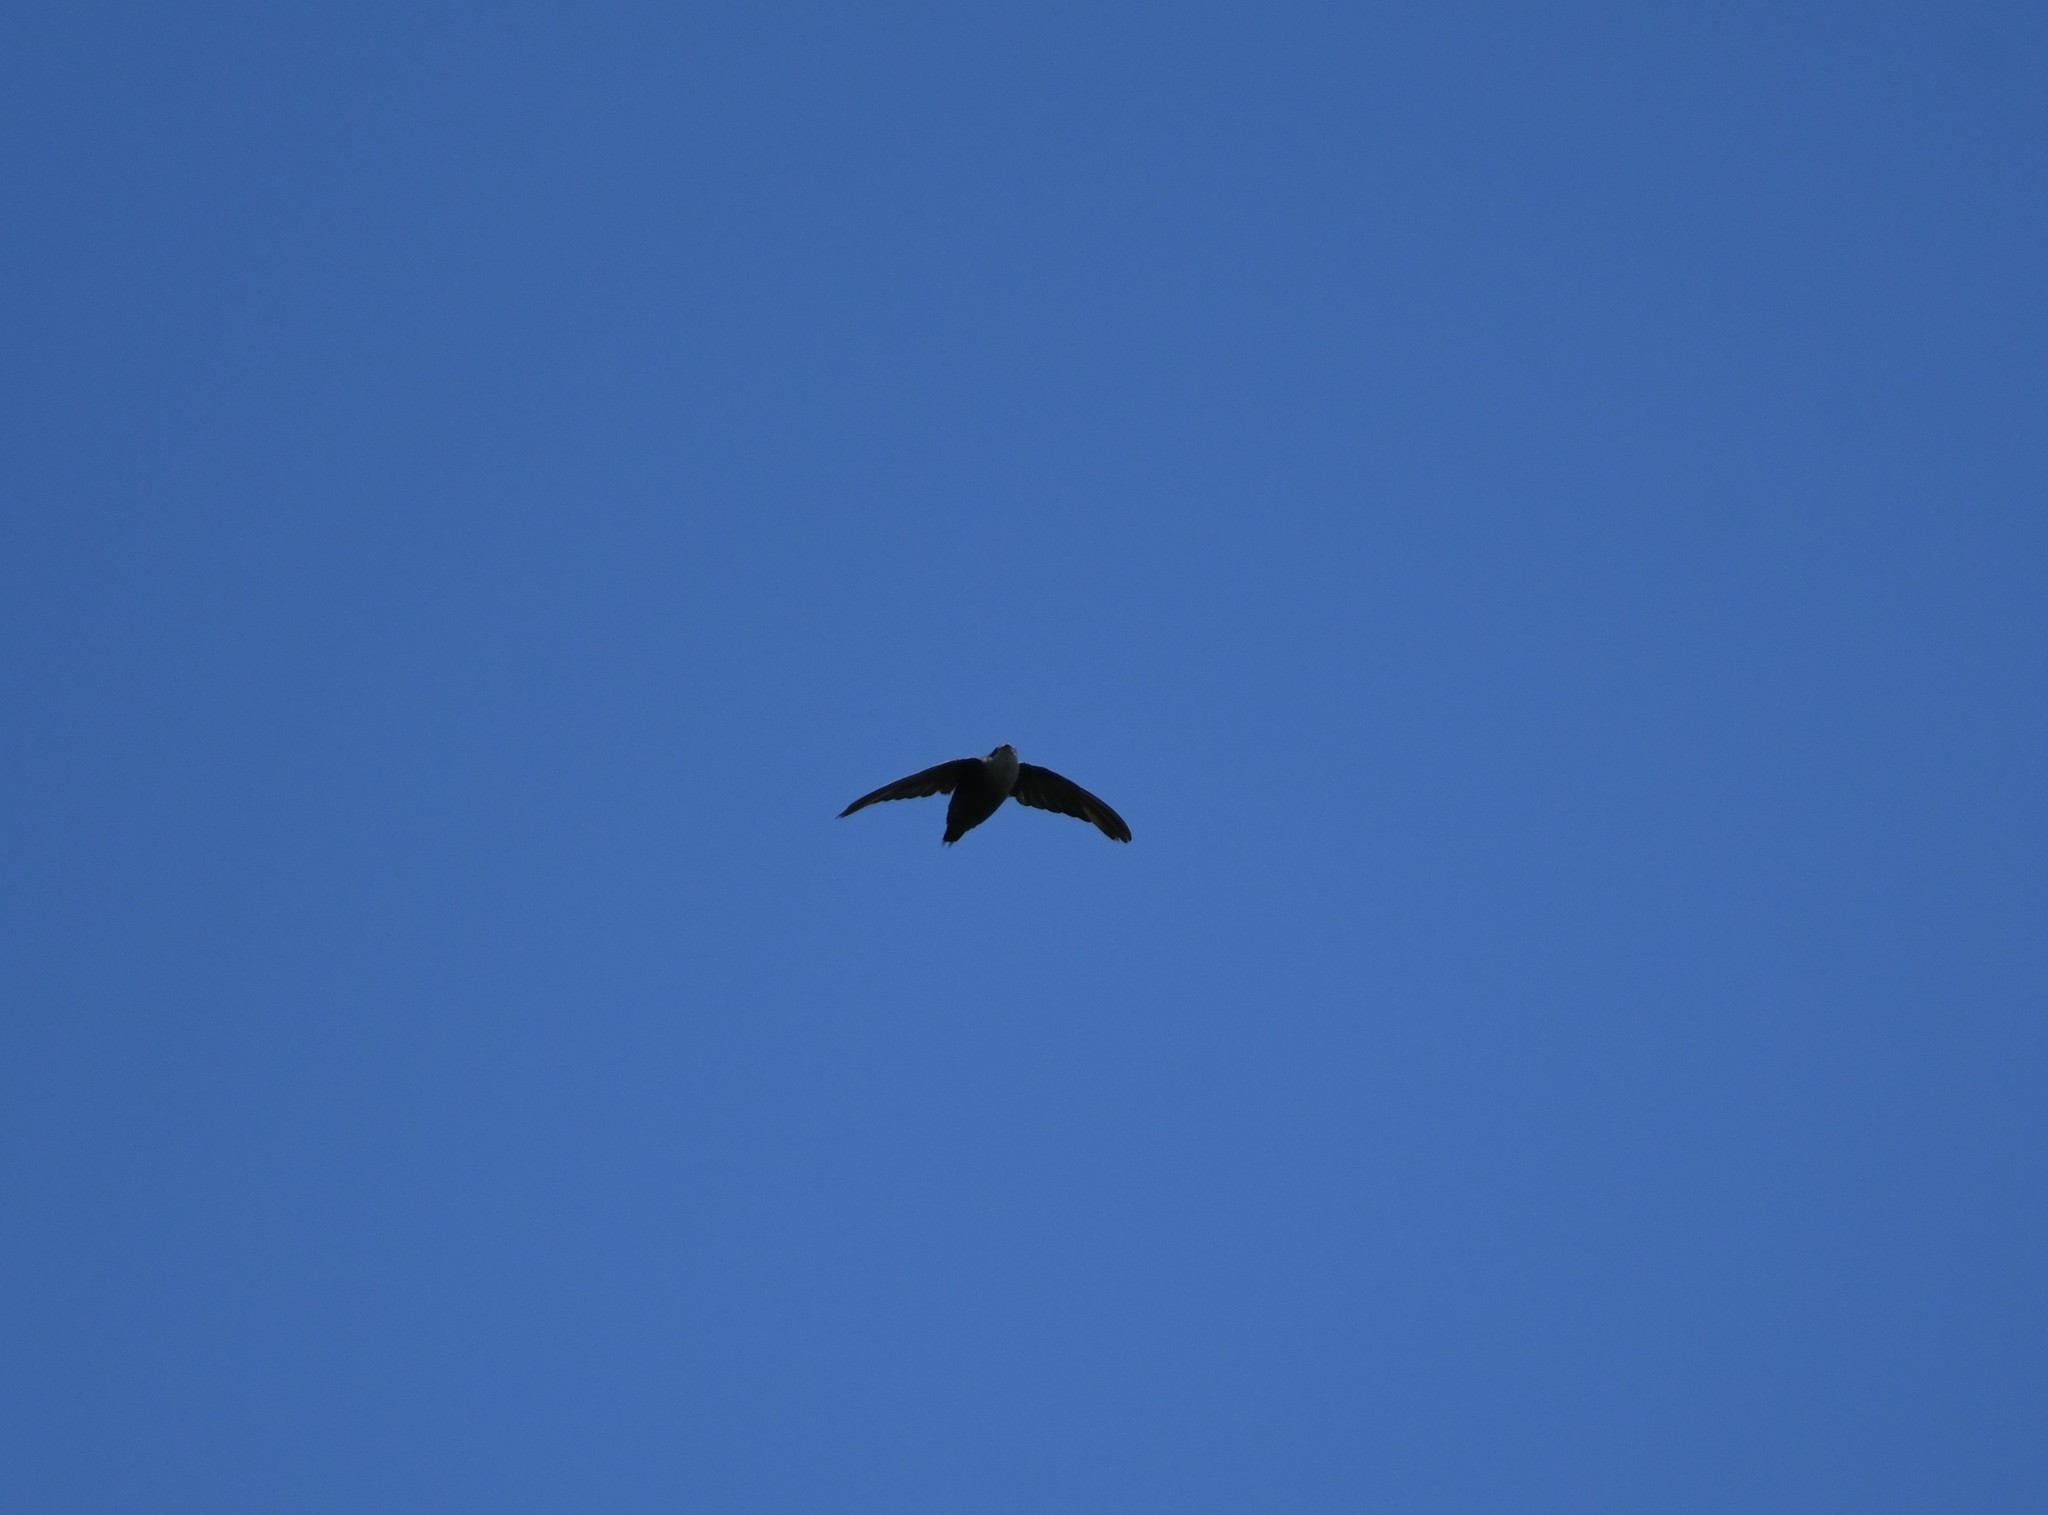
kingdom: Animalia
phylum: Chordata
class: Aves
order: Apodiformes
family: Apodidae
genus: Chaetura
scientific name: Chaetura pelagica
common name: Chimney swift
